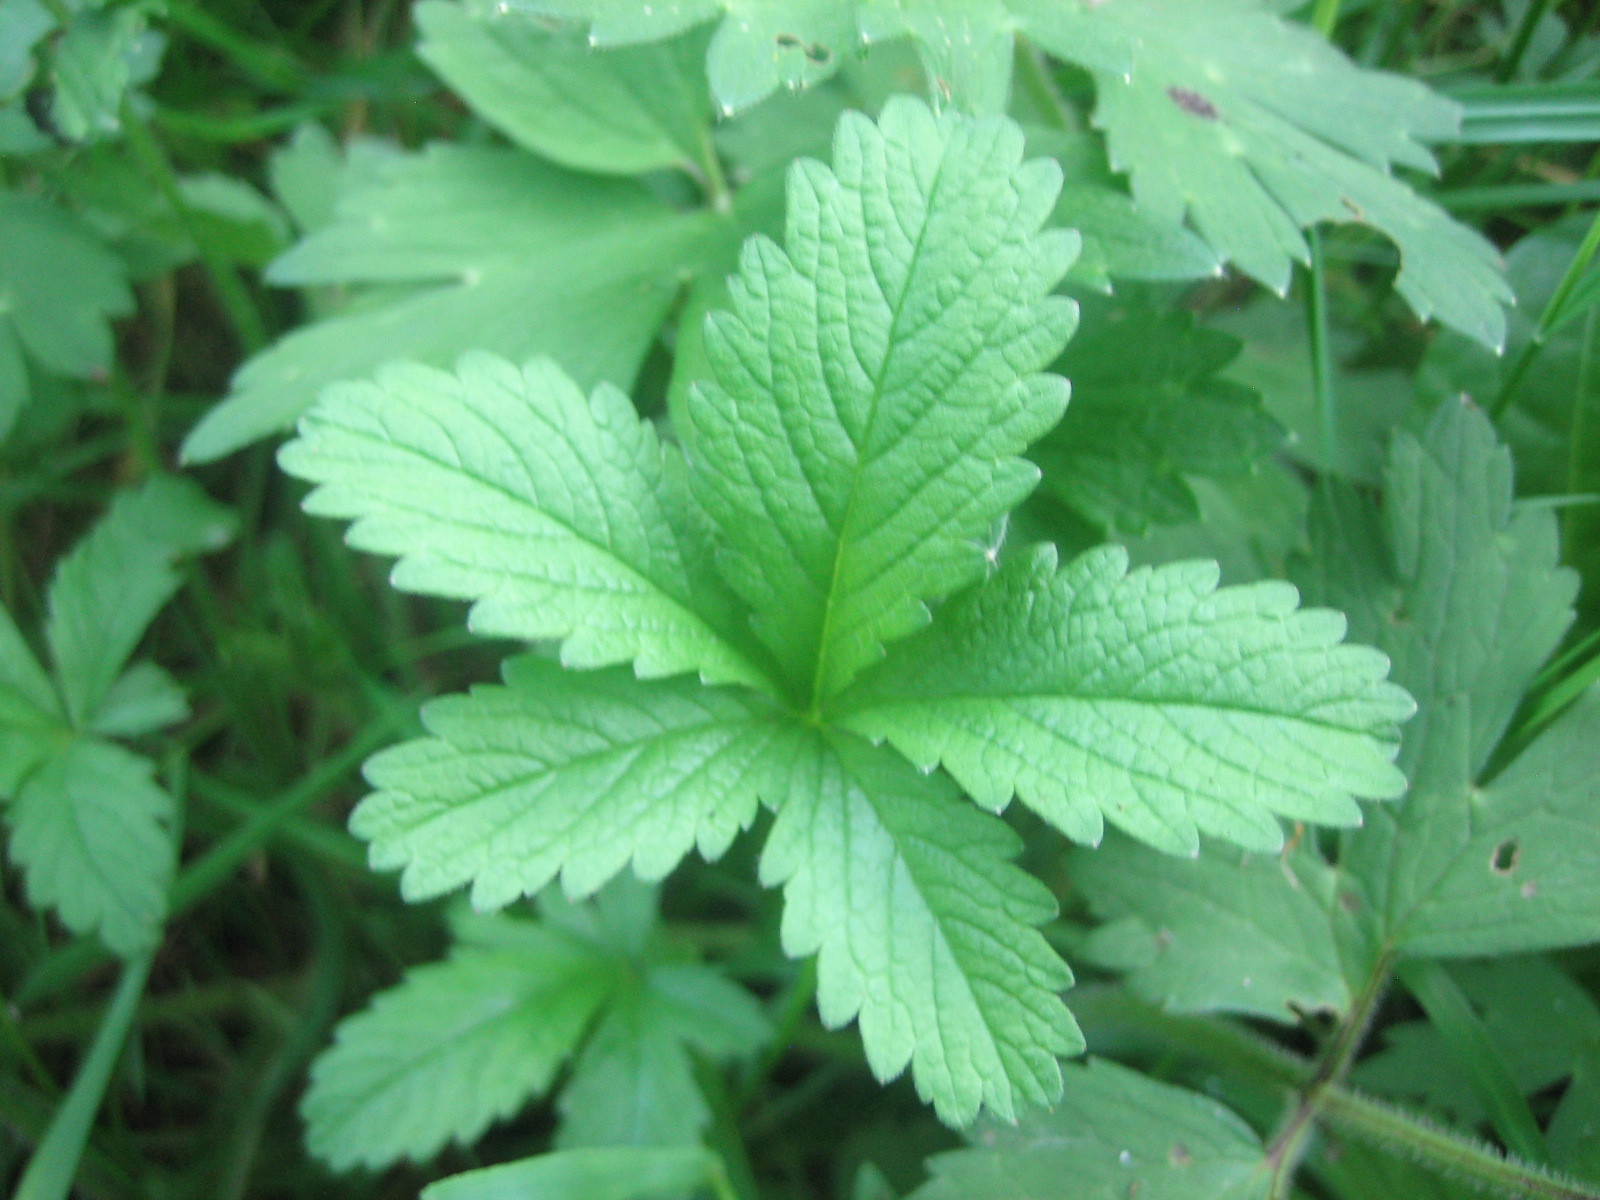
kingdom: Plantae
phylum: Tracheophyta
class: Magnoliopsida
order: Rosales
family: Rosaceae
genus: Potentilla
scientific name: Potentilla reptans
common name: Creeping cinquefoil
